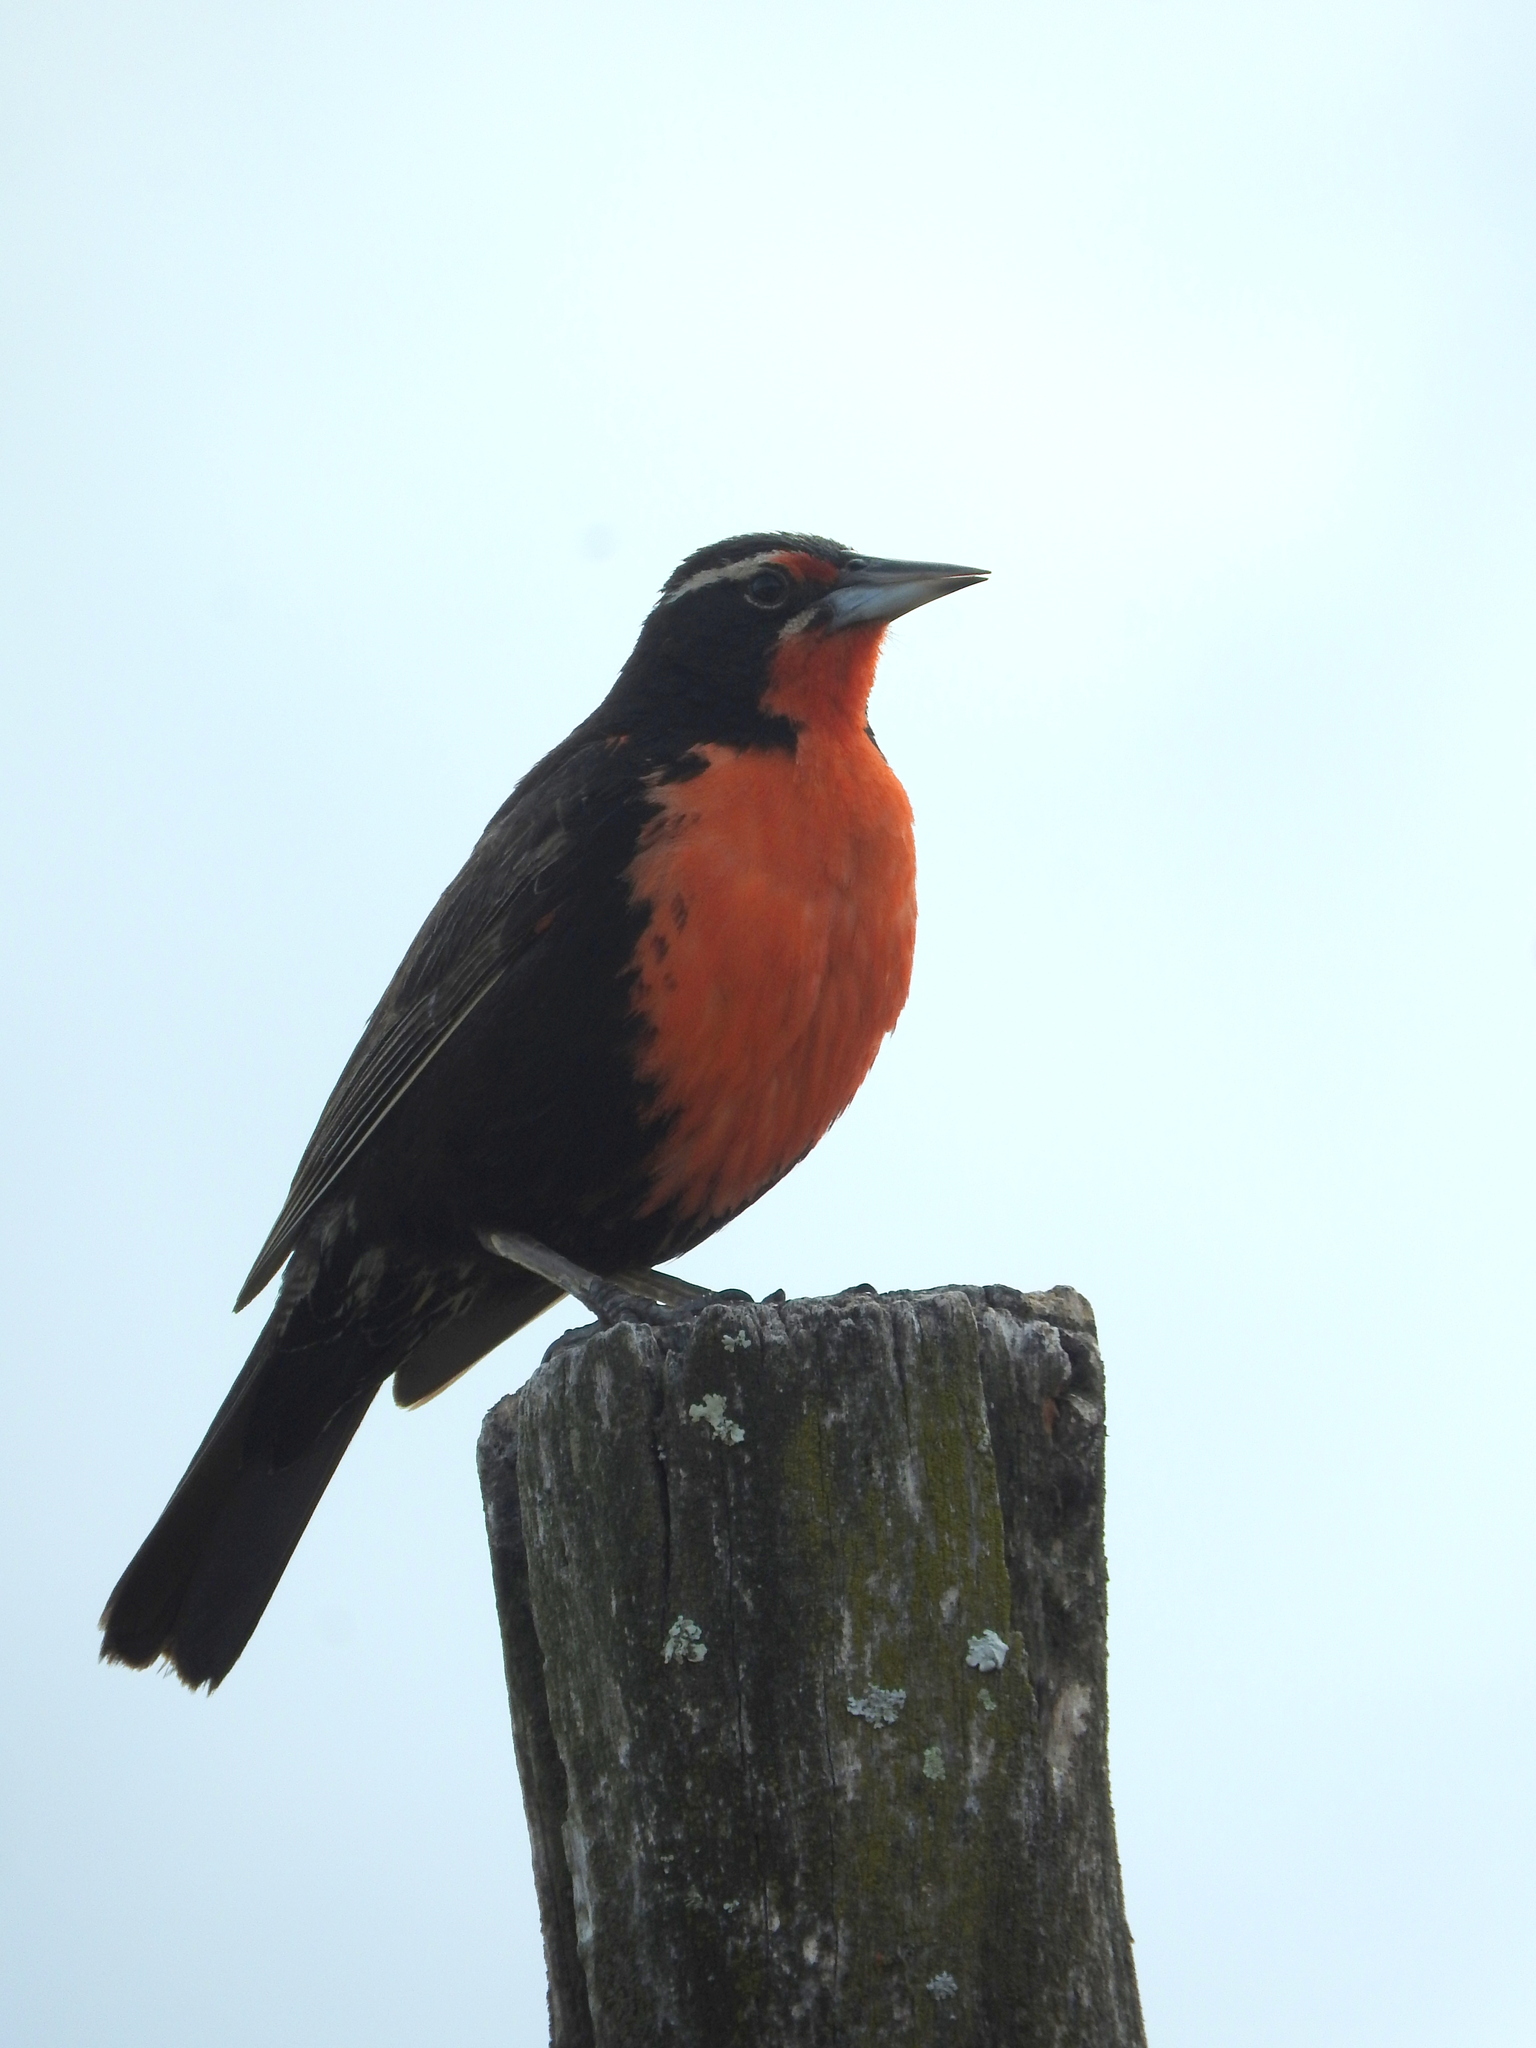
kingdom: Animalia
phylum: Chordata
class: Aves
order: Passeriformes
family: Icteridae
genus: Sturnella
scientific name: Sturnella loyca
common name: Long-tailed meadowlark
